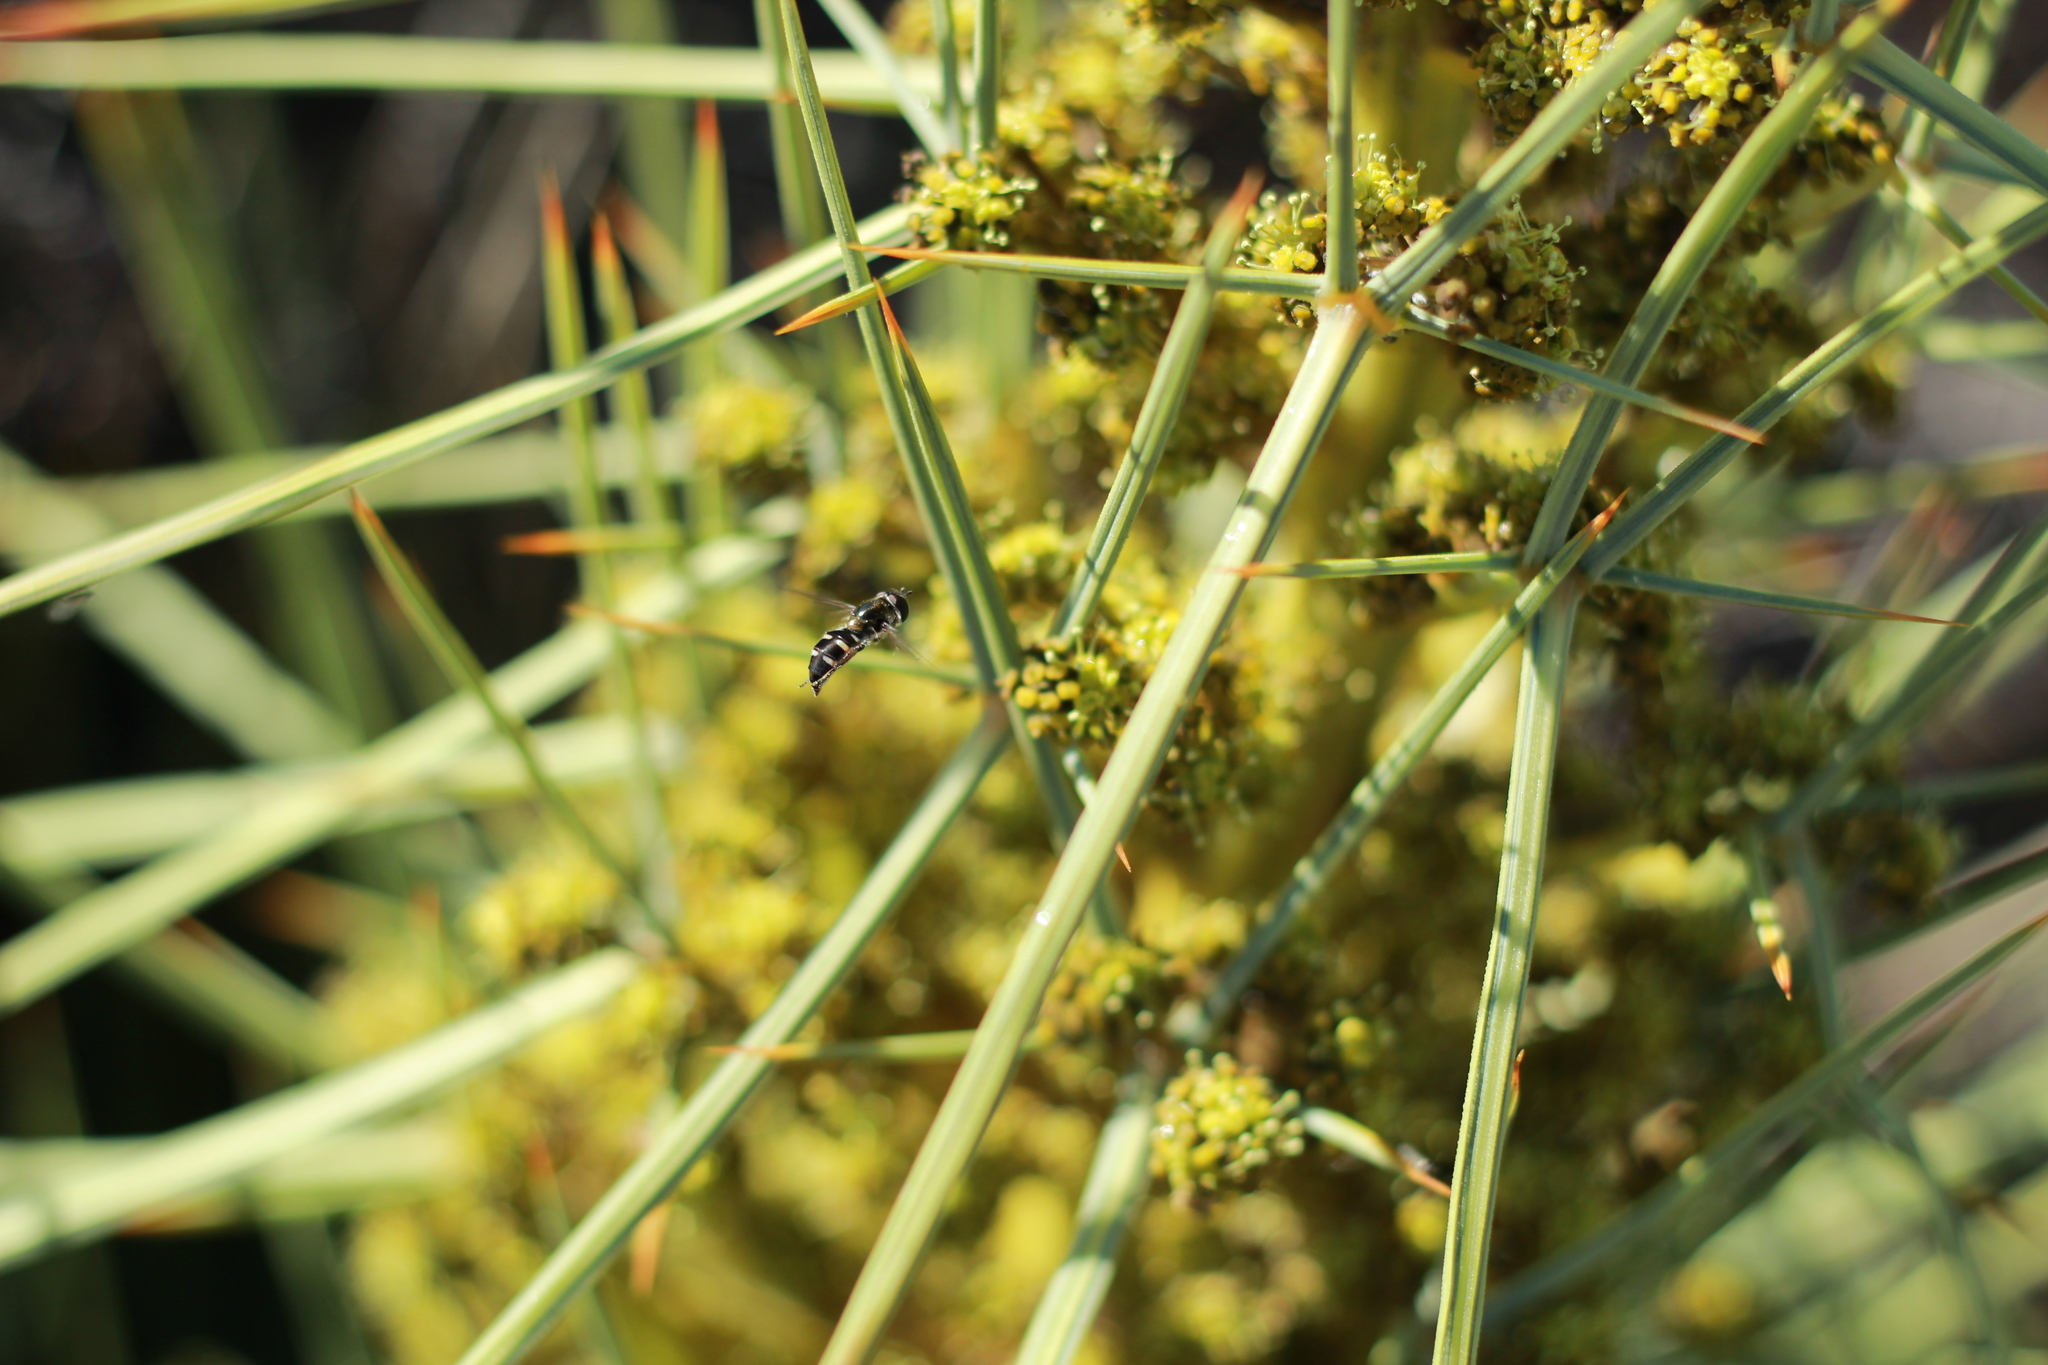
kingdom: Animalia
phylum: Arthropoda
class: Insecta
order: Diptera
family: Syrphidae
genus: Melangyna
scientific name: Melangyna novaezelandiae
